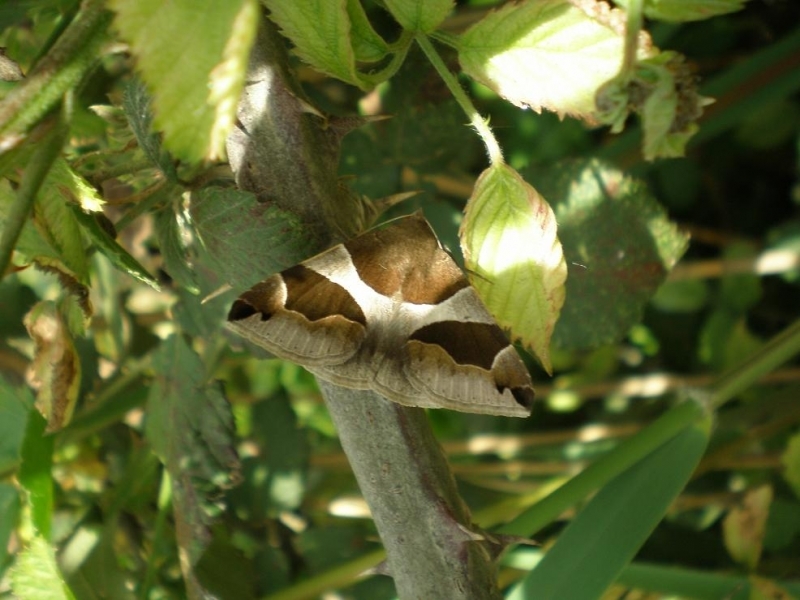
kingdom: Animalia
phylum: Arthropoda
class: Insecta
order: Lepidoptera
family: Erebidae
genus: Dysgonia
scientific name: Dysgonia algira
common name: Passenger
